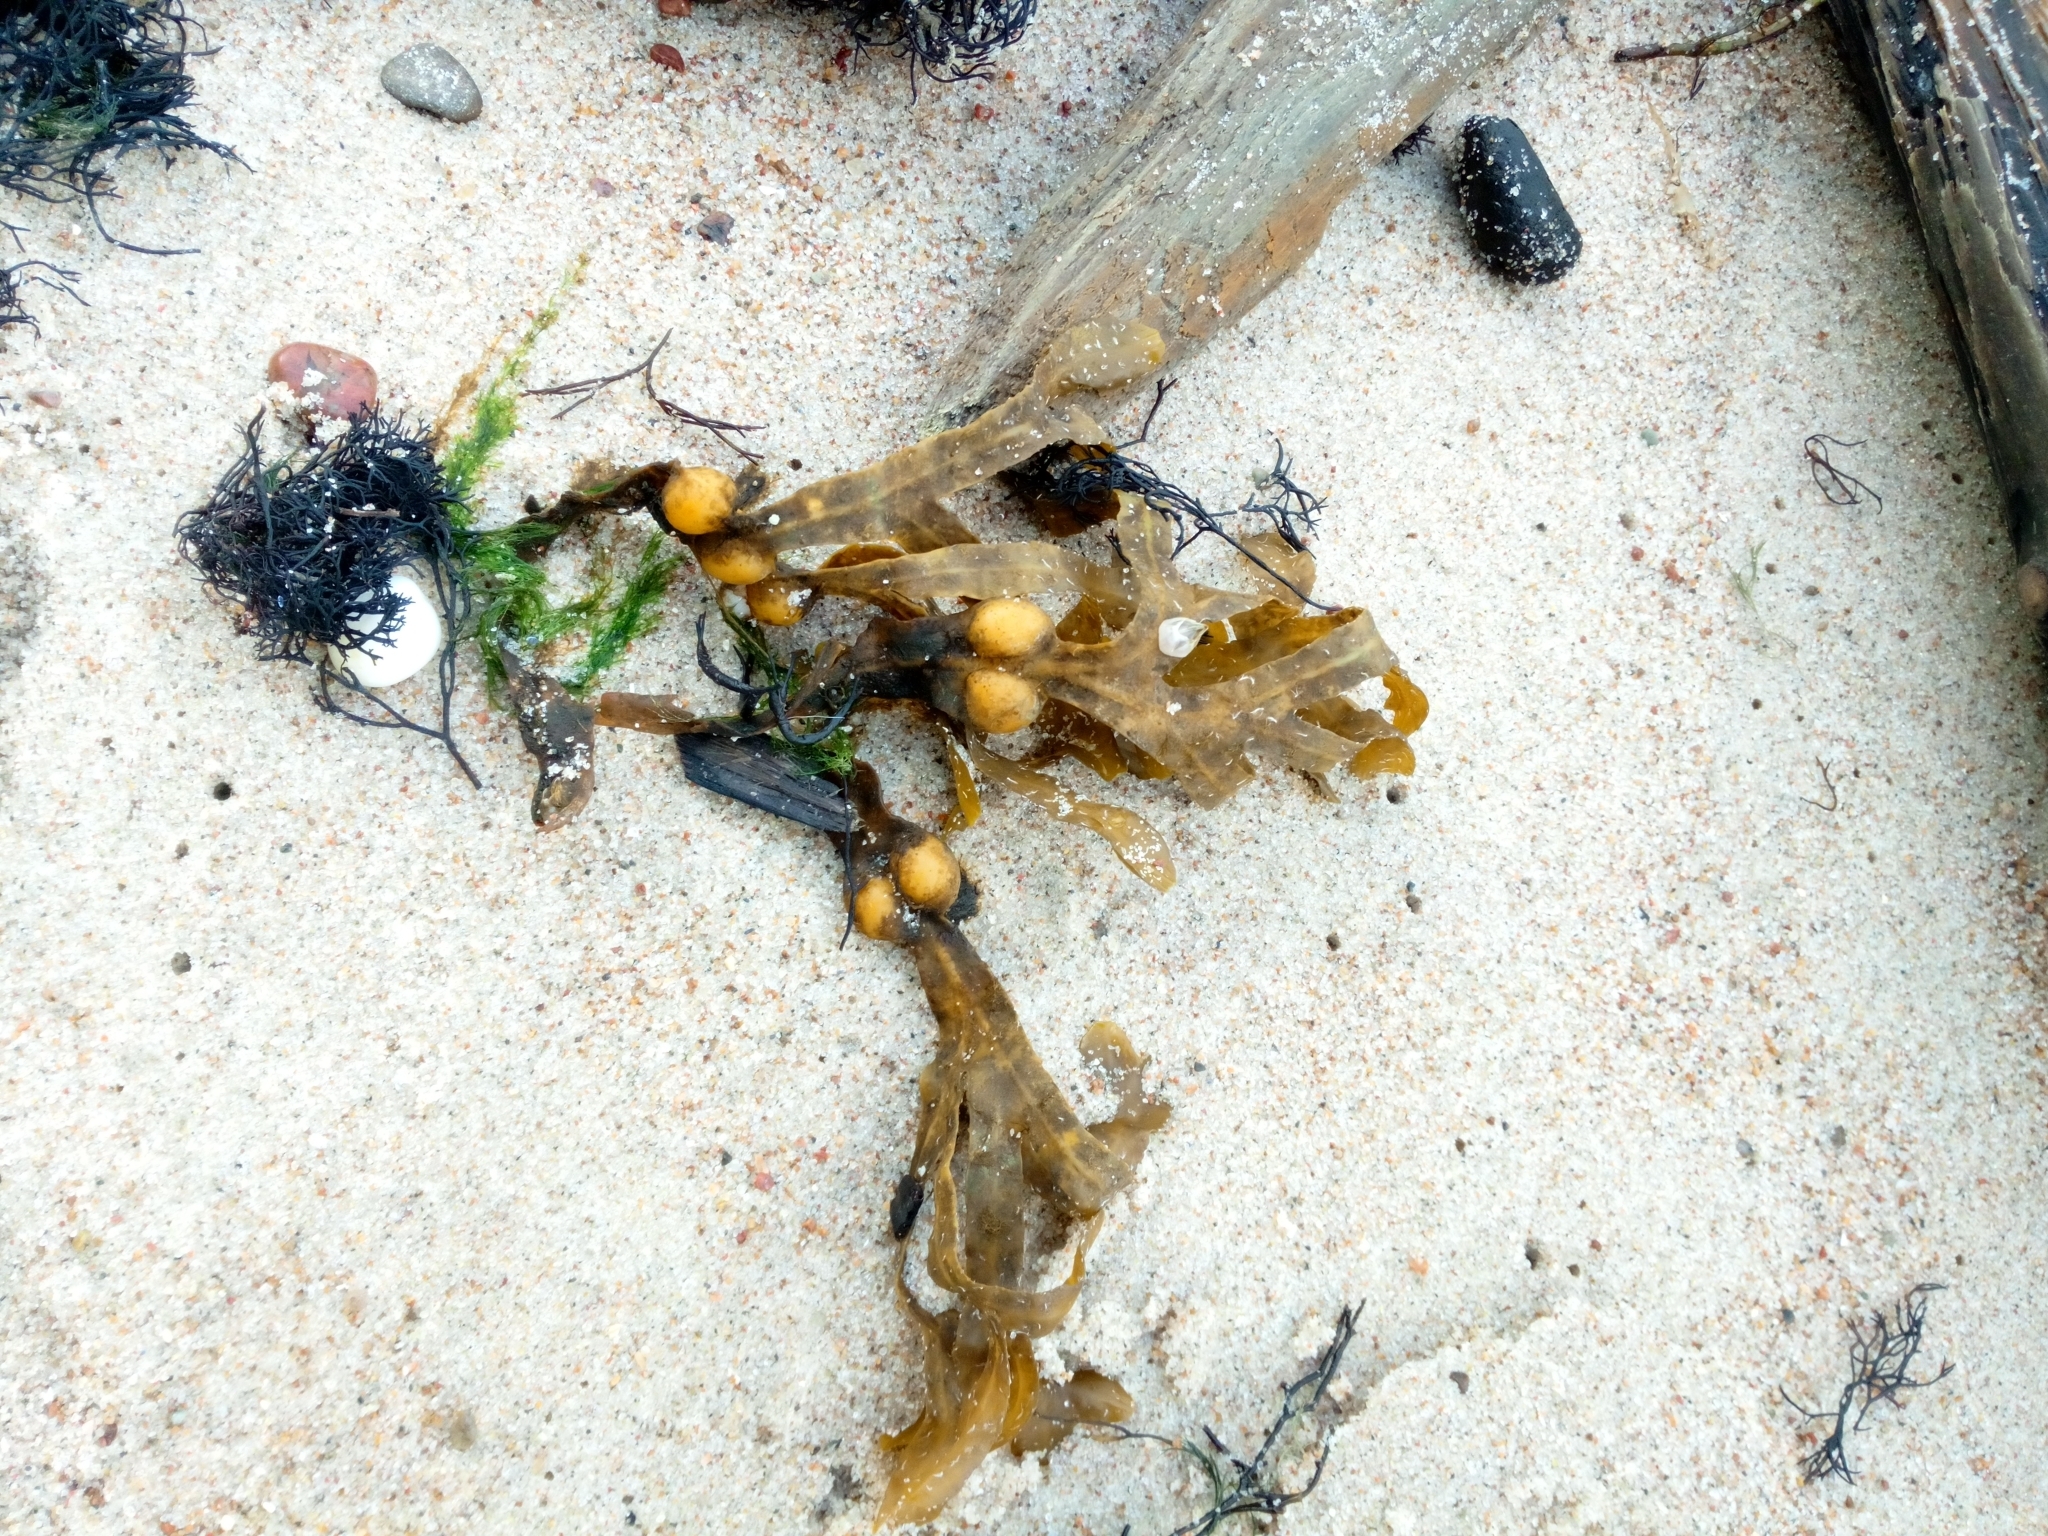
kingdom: Chromista
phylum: Ochrophyta
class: Phaeophyceae
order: Fucales
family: Fucaceae
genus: Fucus
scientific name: Fucus vesiculosus
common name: Bladder wrack
